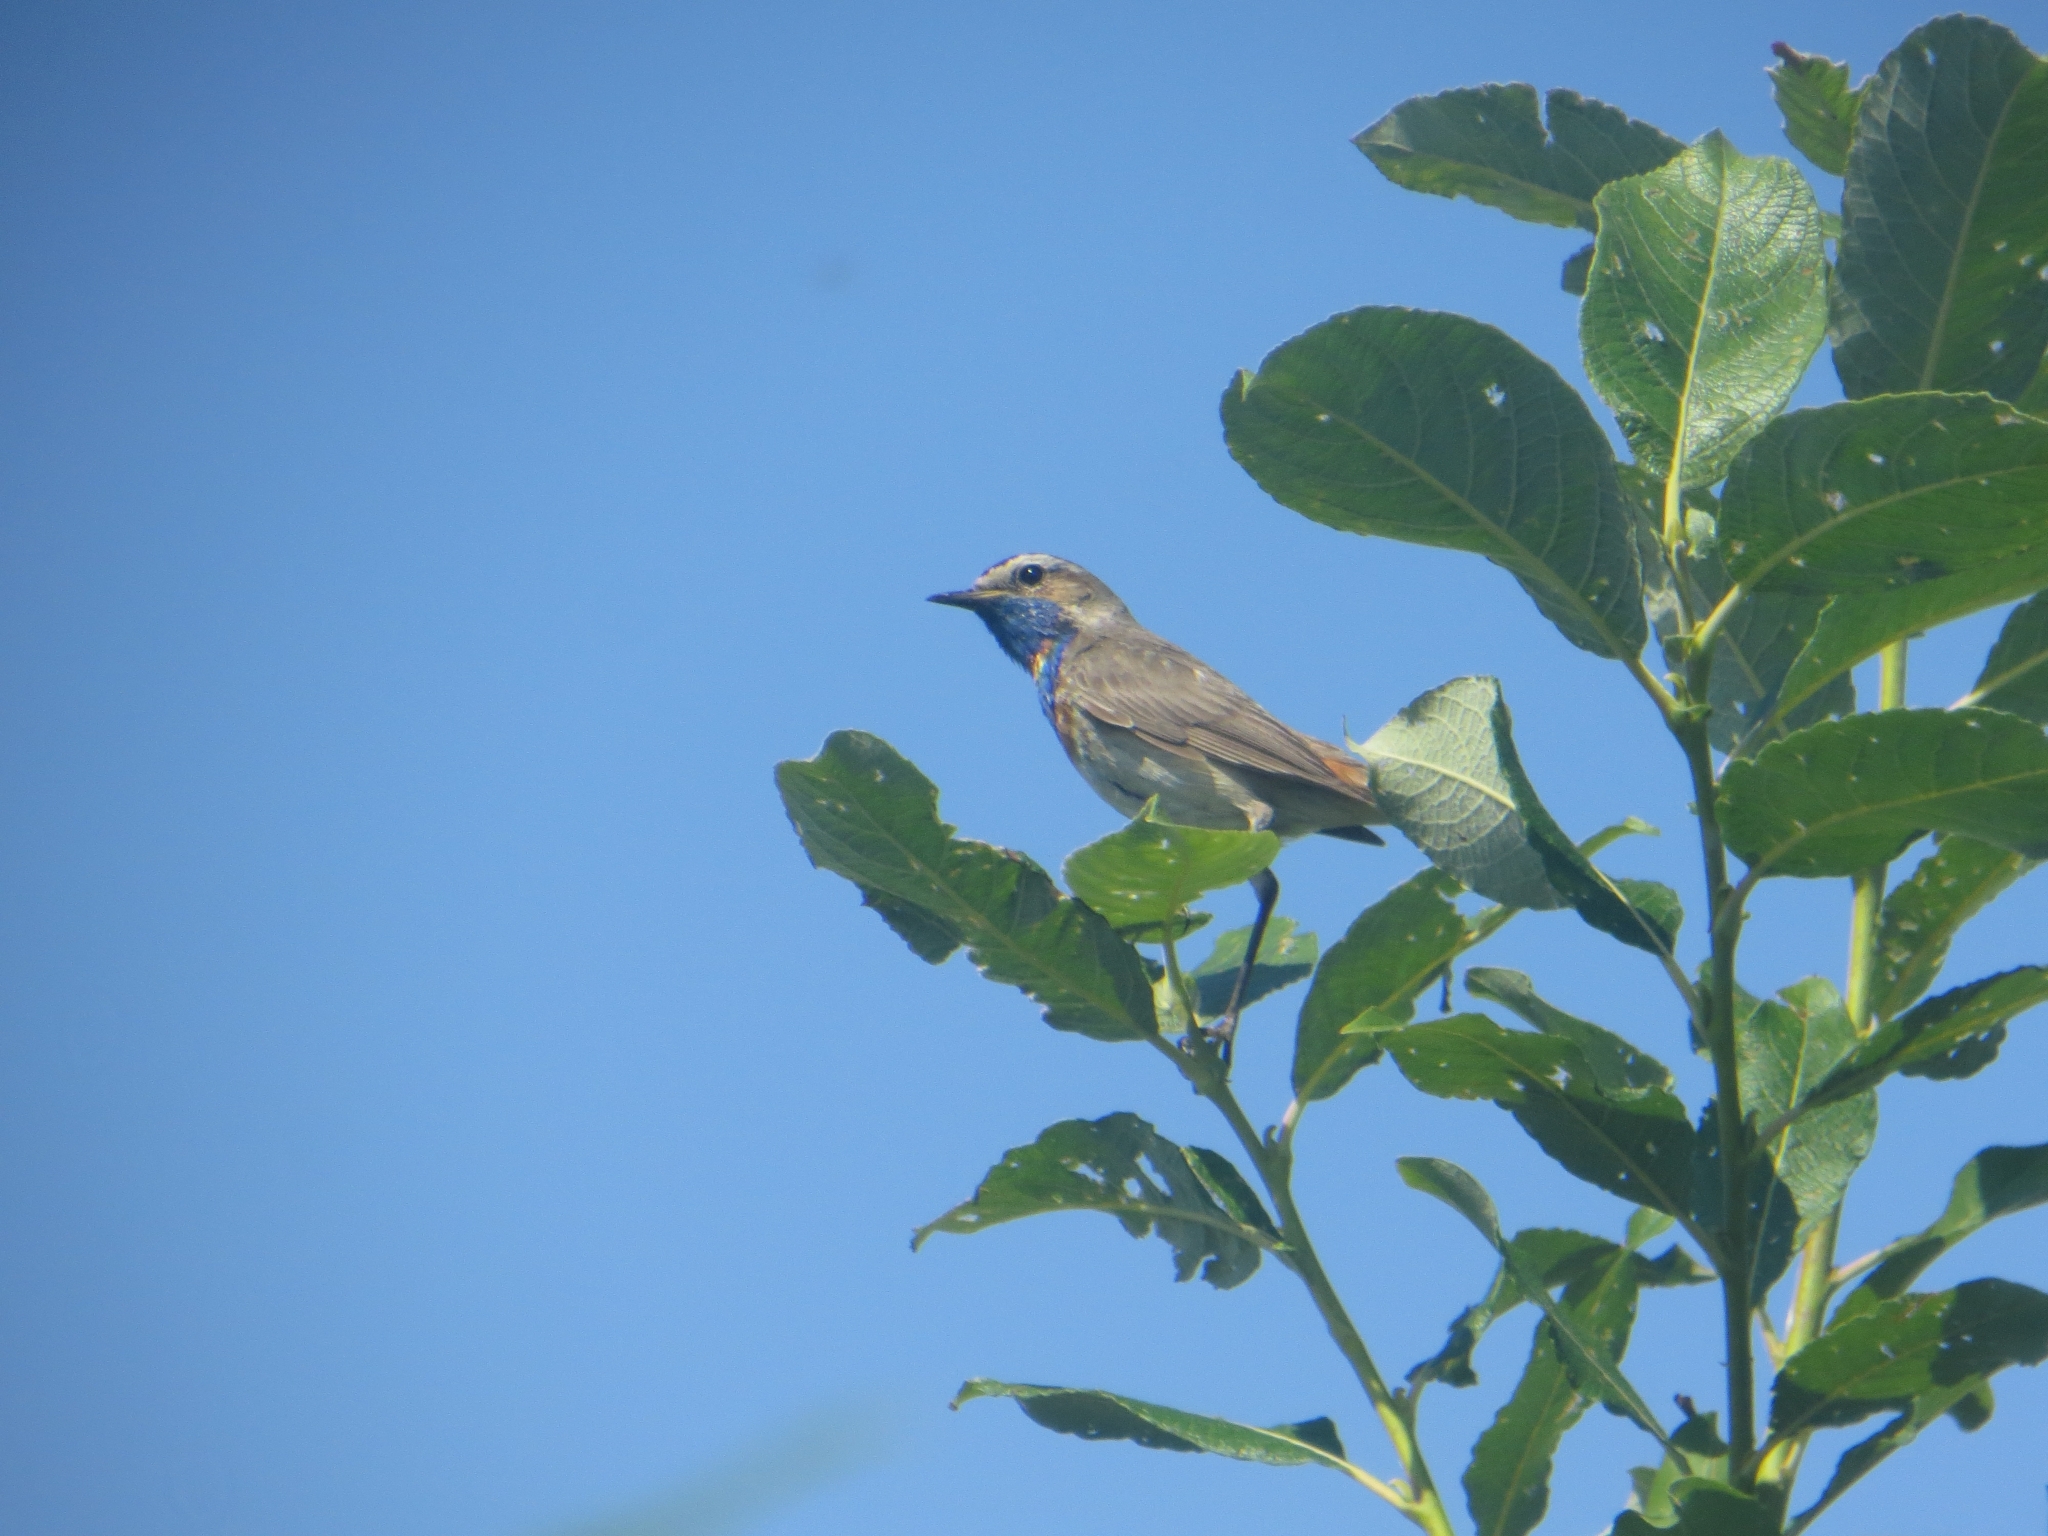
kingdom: Animalia
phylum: Chordata
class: Aves
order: Passeriformes
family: Muscicapidae
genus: Luscinia
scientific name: Luscinia svecica
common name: Bluethroat
